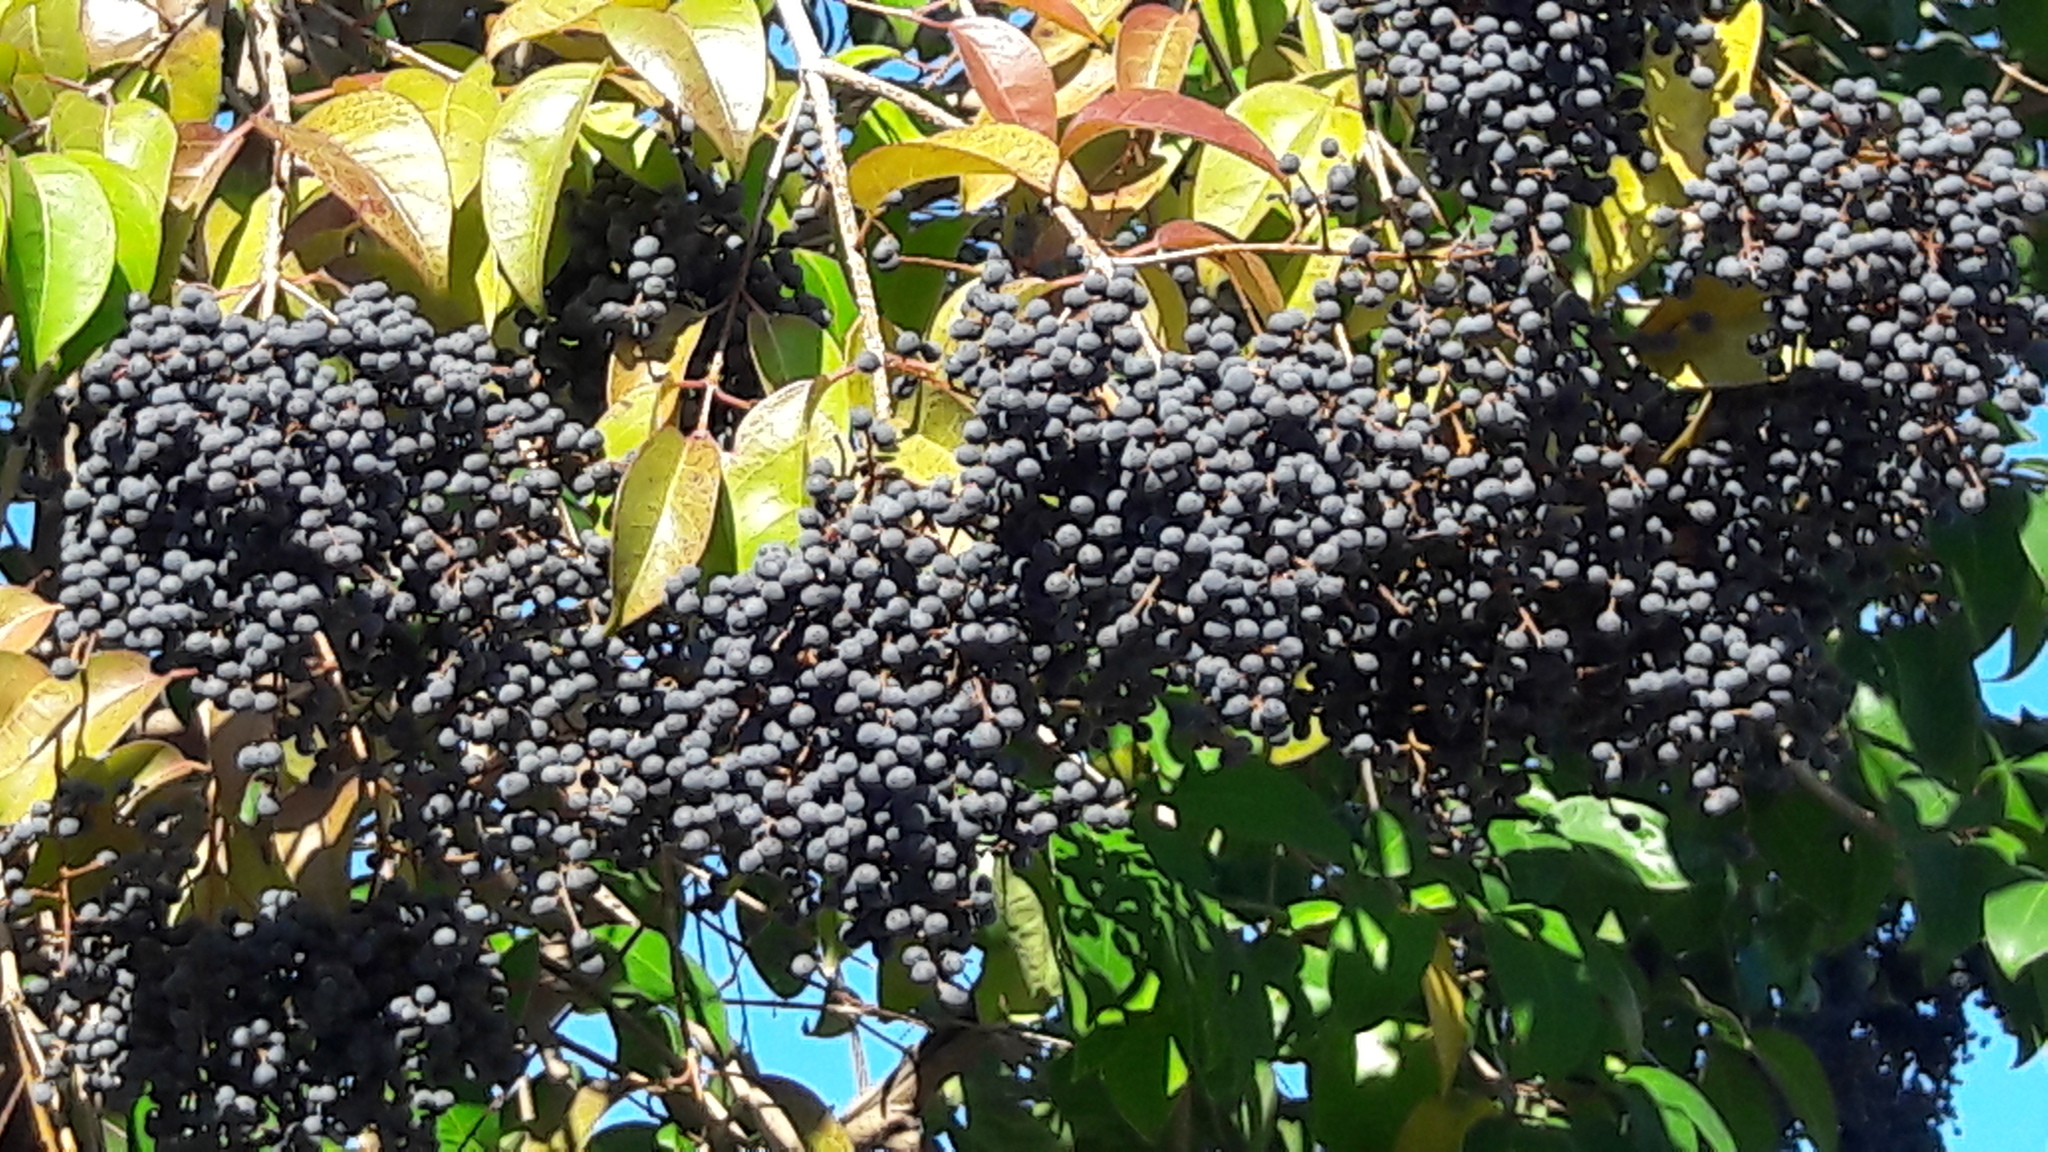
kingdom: Plantae
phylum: Tracheophyta
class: Magnoliopsida
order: Lamiales
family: Oleaceae
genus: Ligustrum
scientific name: Ligustrum lucidum
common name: Glossy privet
